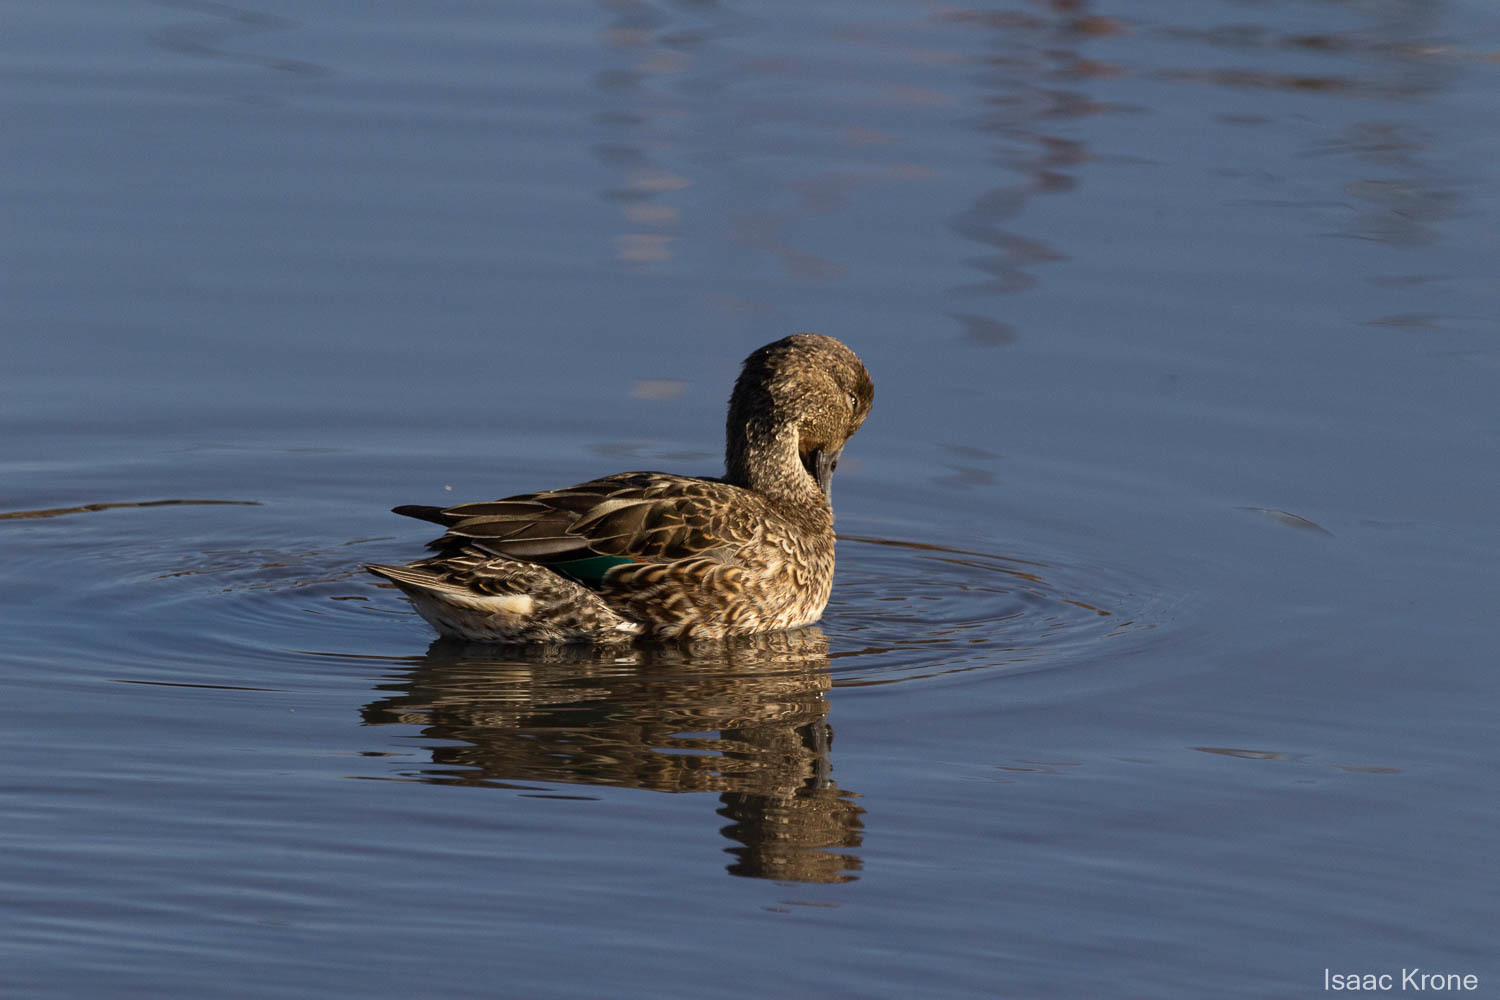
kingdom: Animalia
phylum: Chordata
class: Aves
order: Anseriformes
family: Anatidae
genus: Anas
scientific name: Anas crecca
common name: Eurasian teal
